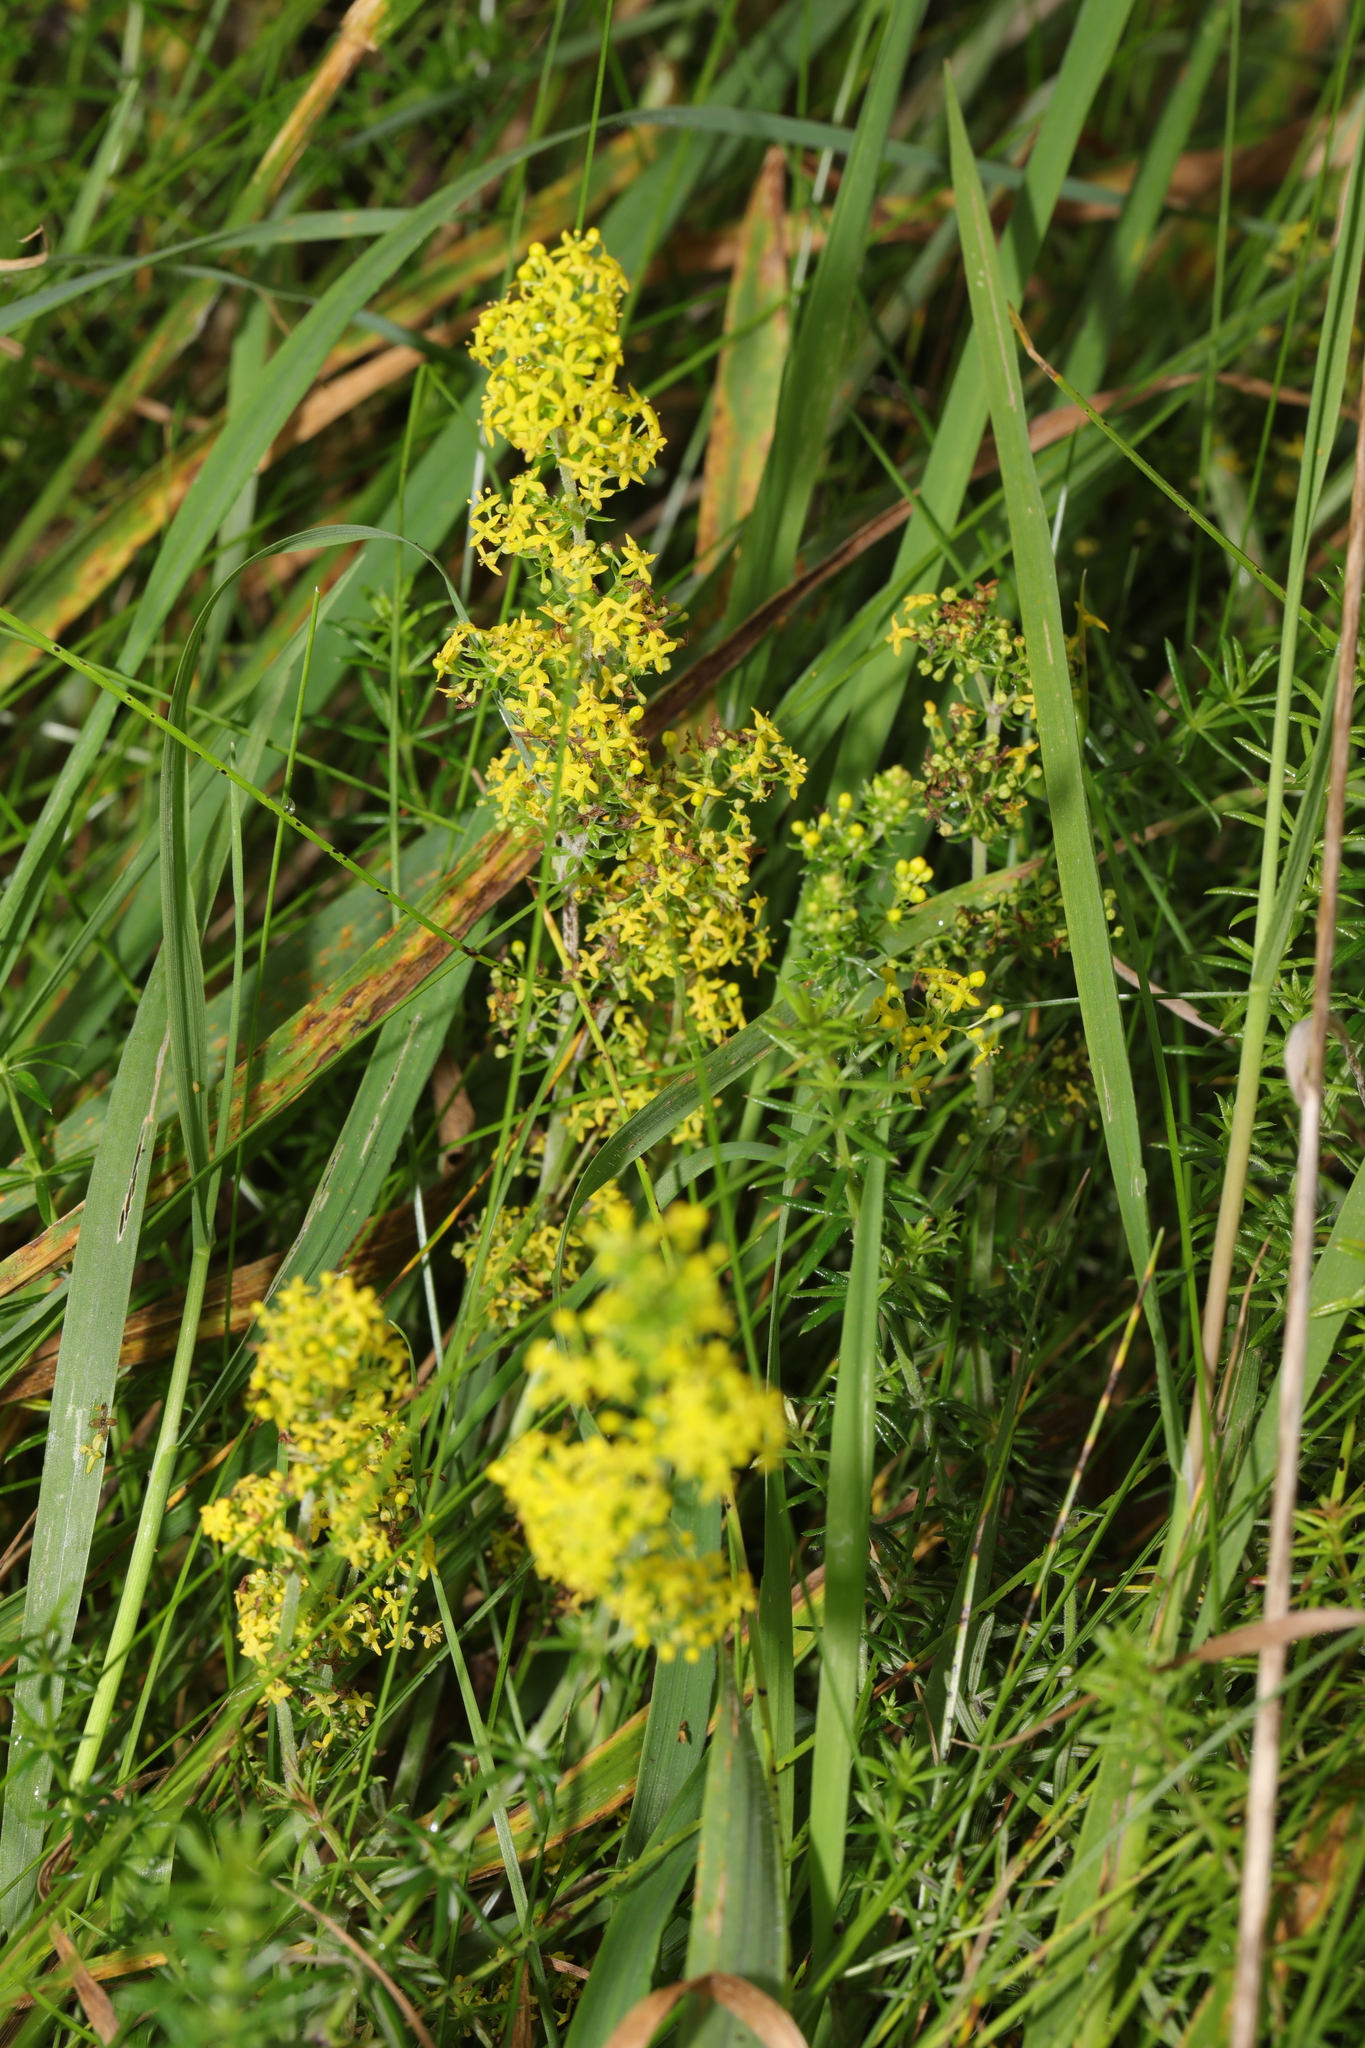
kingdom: Plantae
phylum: Tracheophyta
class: Magnoliopsida
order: Gentianales
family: Rubiaceae
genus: Galium
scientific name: Galium verum
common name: Lady's bedstraw
